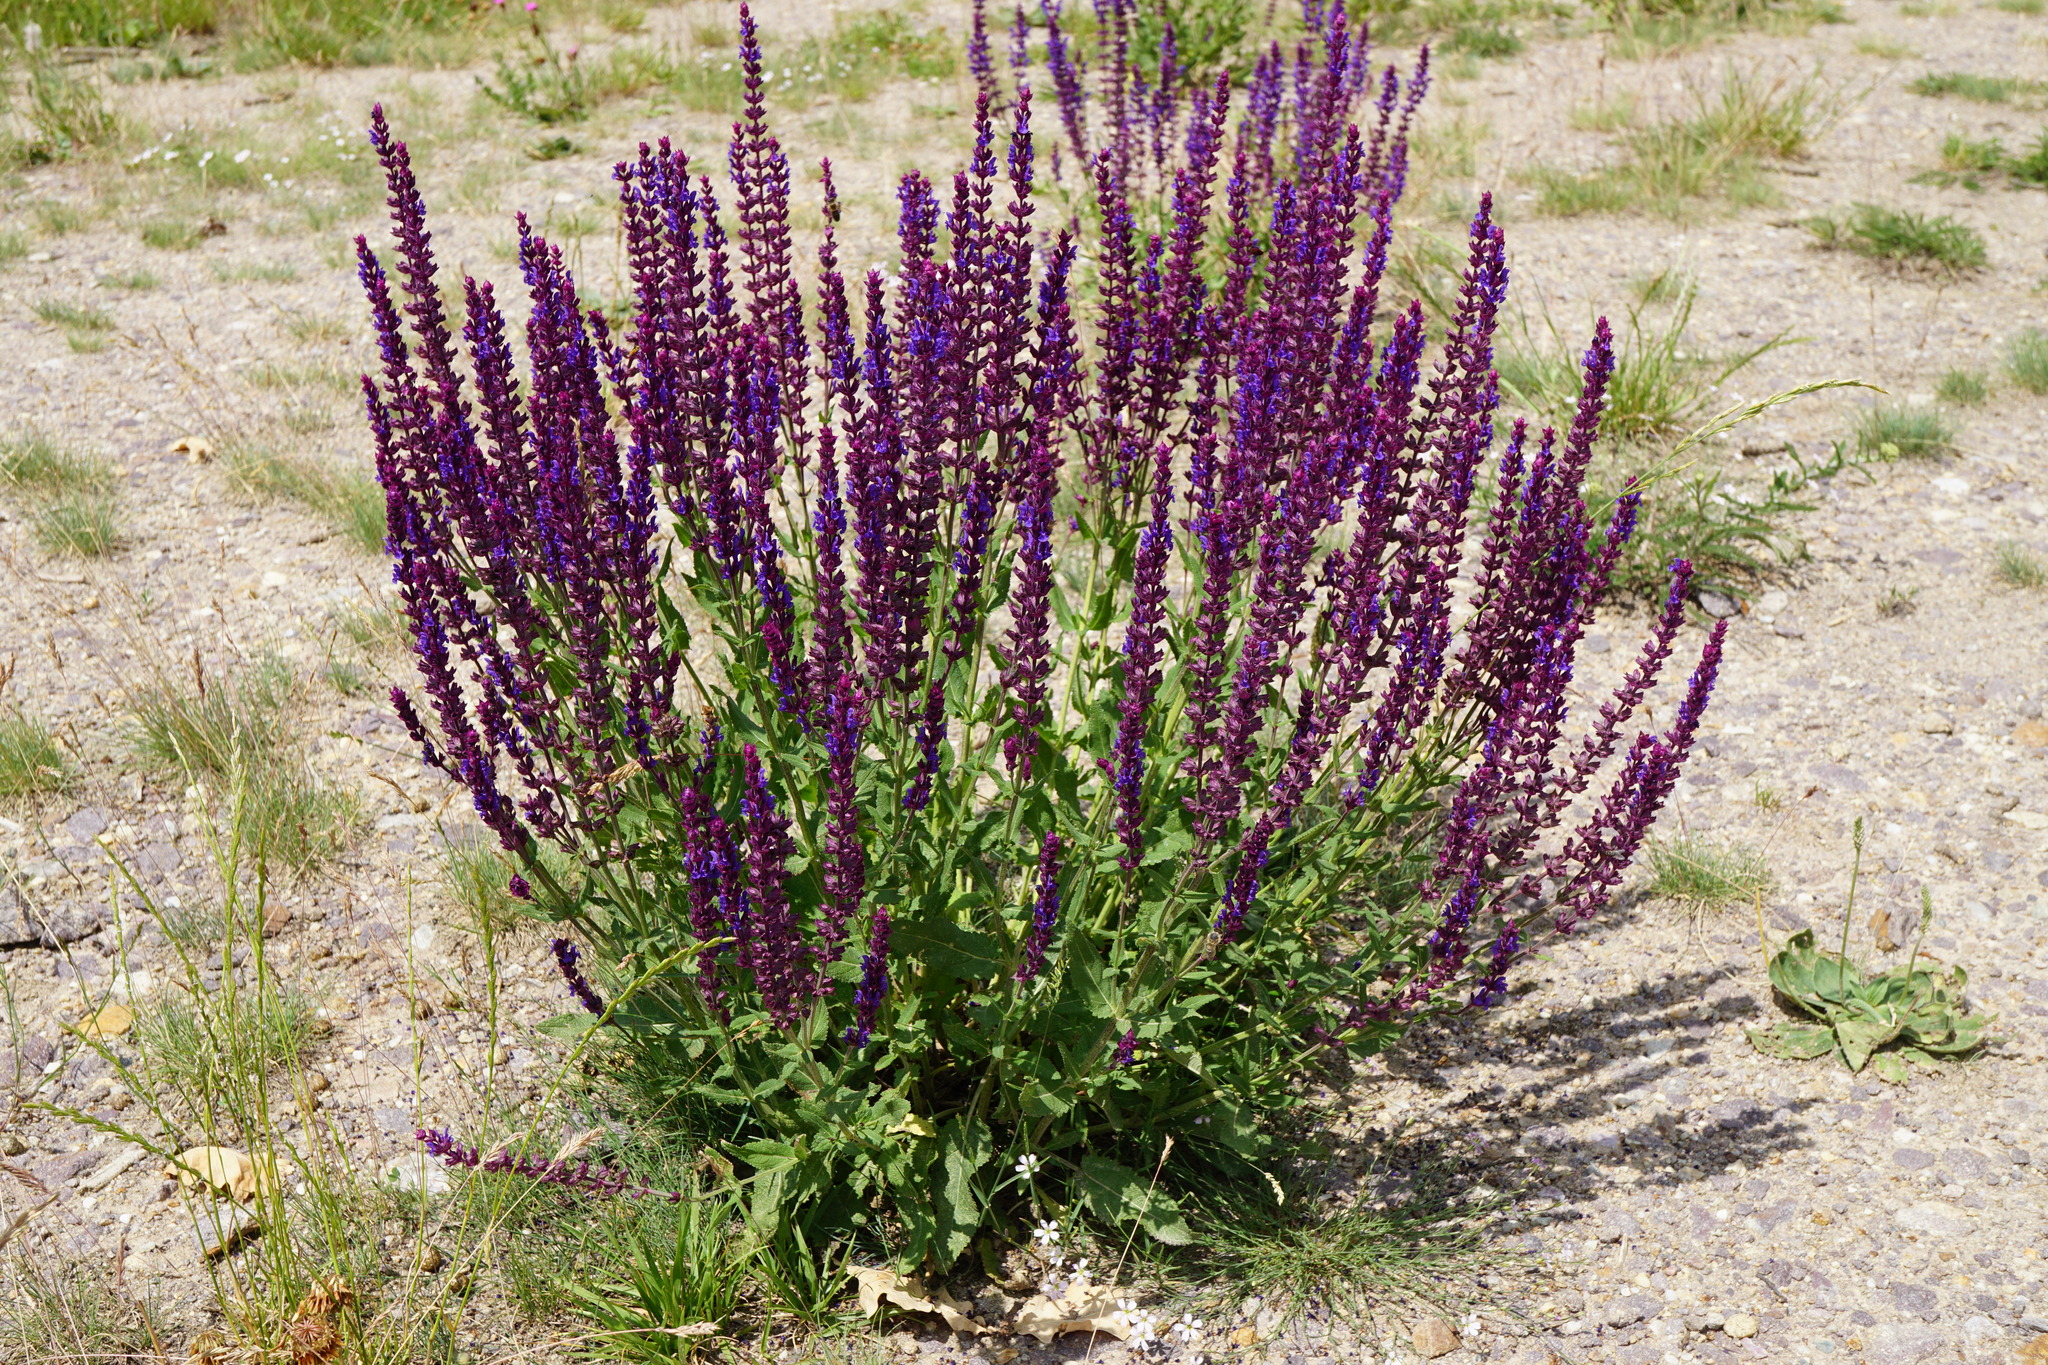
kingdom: Plantae
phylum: Tracheophyta
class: Magnoliopsida
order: Lamiales
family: Lamiaceae
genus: Salvia
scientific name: Salvia nemorosa
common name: Balkan clary
